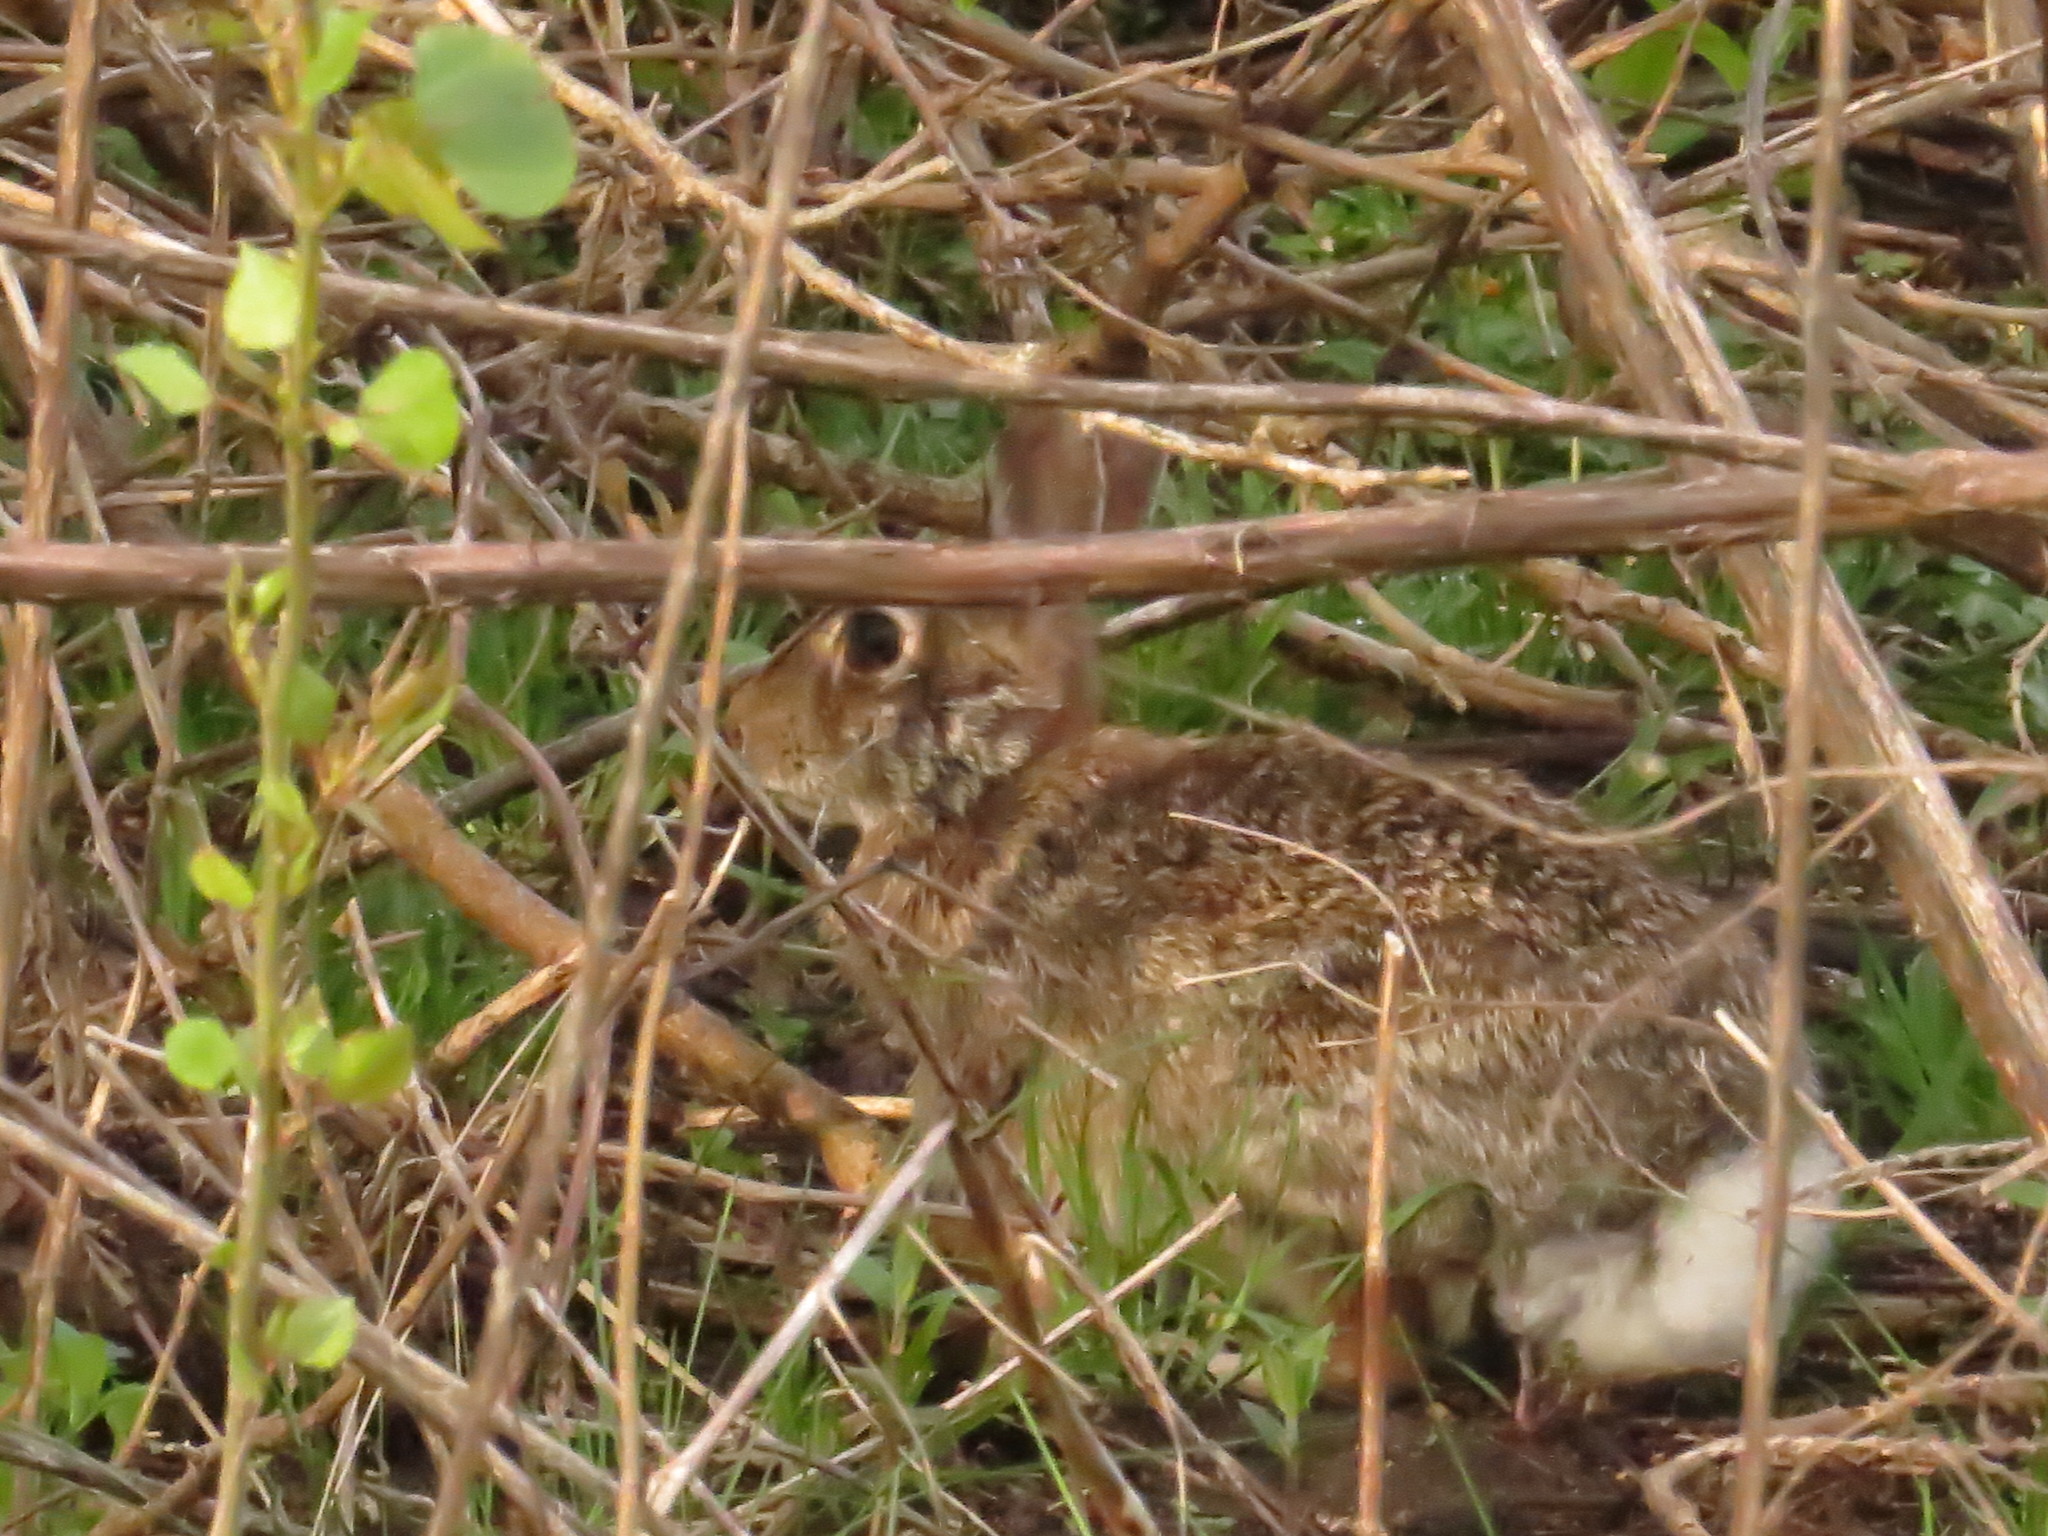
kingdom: Animalia
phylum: Chordata
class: Mammalia
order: Lagomorpha
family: Leporidae
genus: Sylvilagus
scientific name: Sylvilagus floridanus
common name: Eastern cottontail
